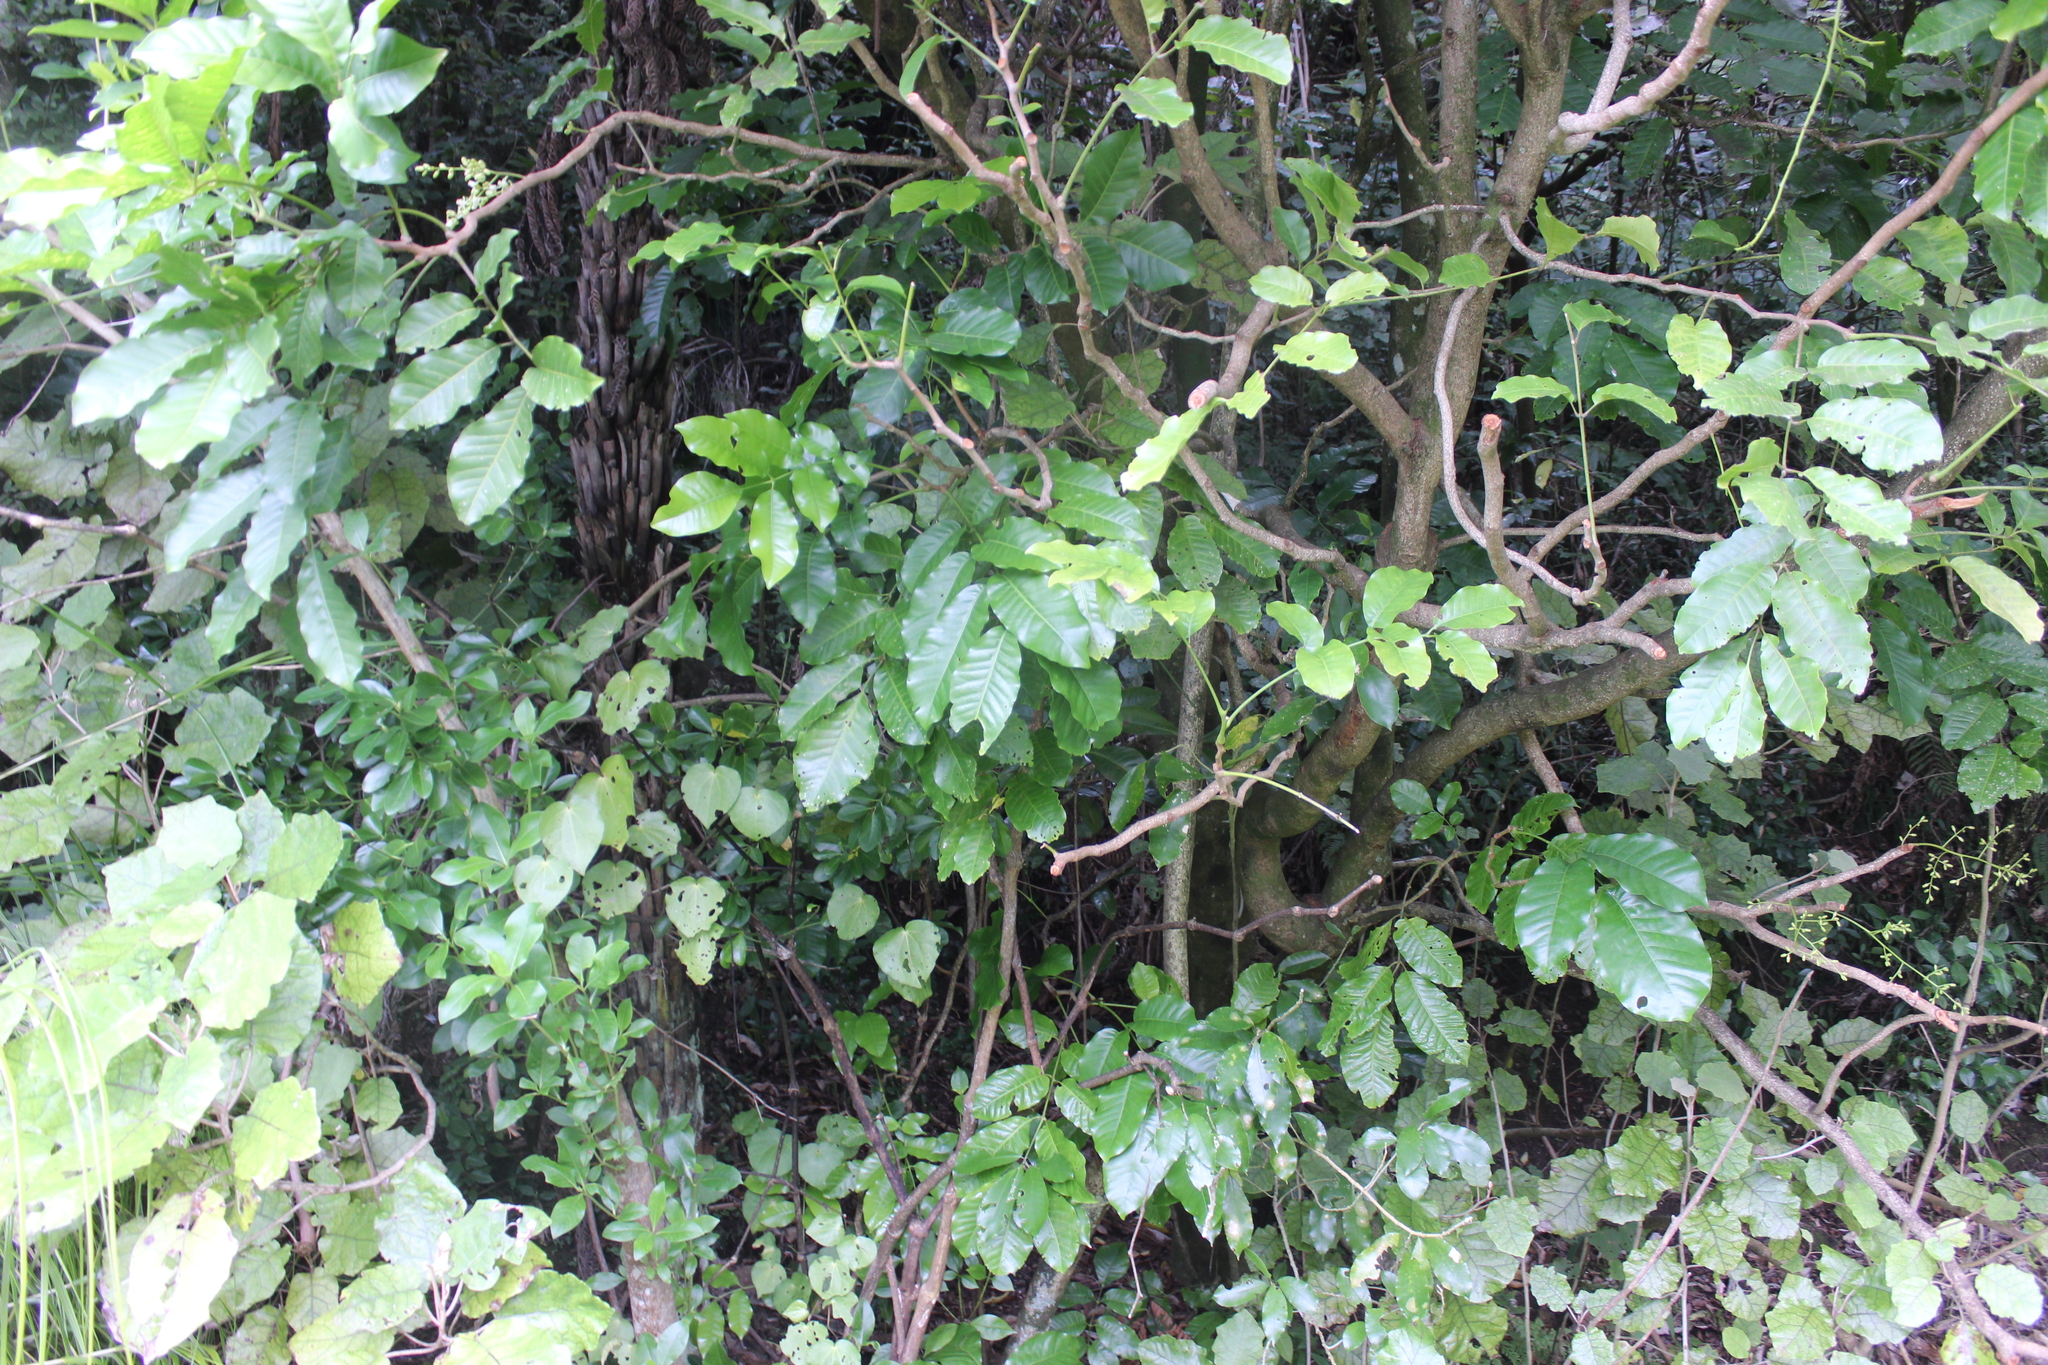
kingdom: Plantae
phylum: Tracheophyta
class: Magnoliopsida
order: Sapindales
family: Meliaceae
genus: Didymocheton
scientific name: Didymocheton spectabilis
